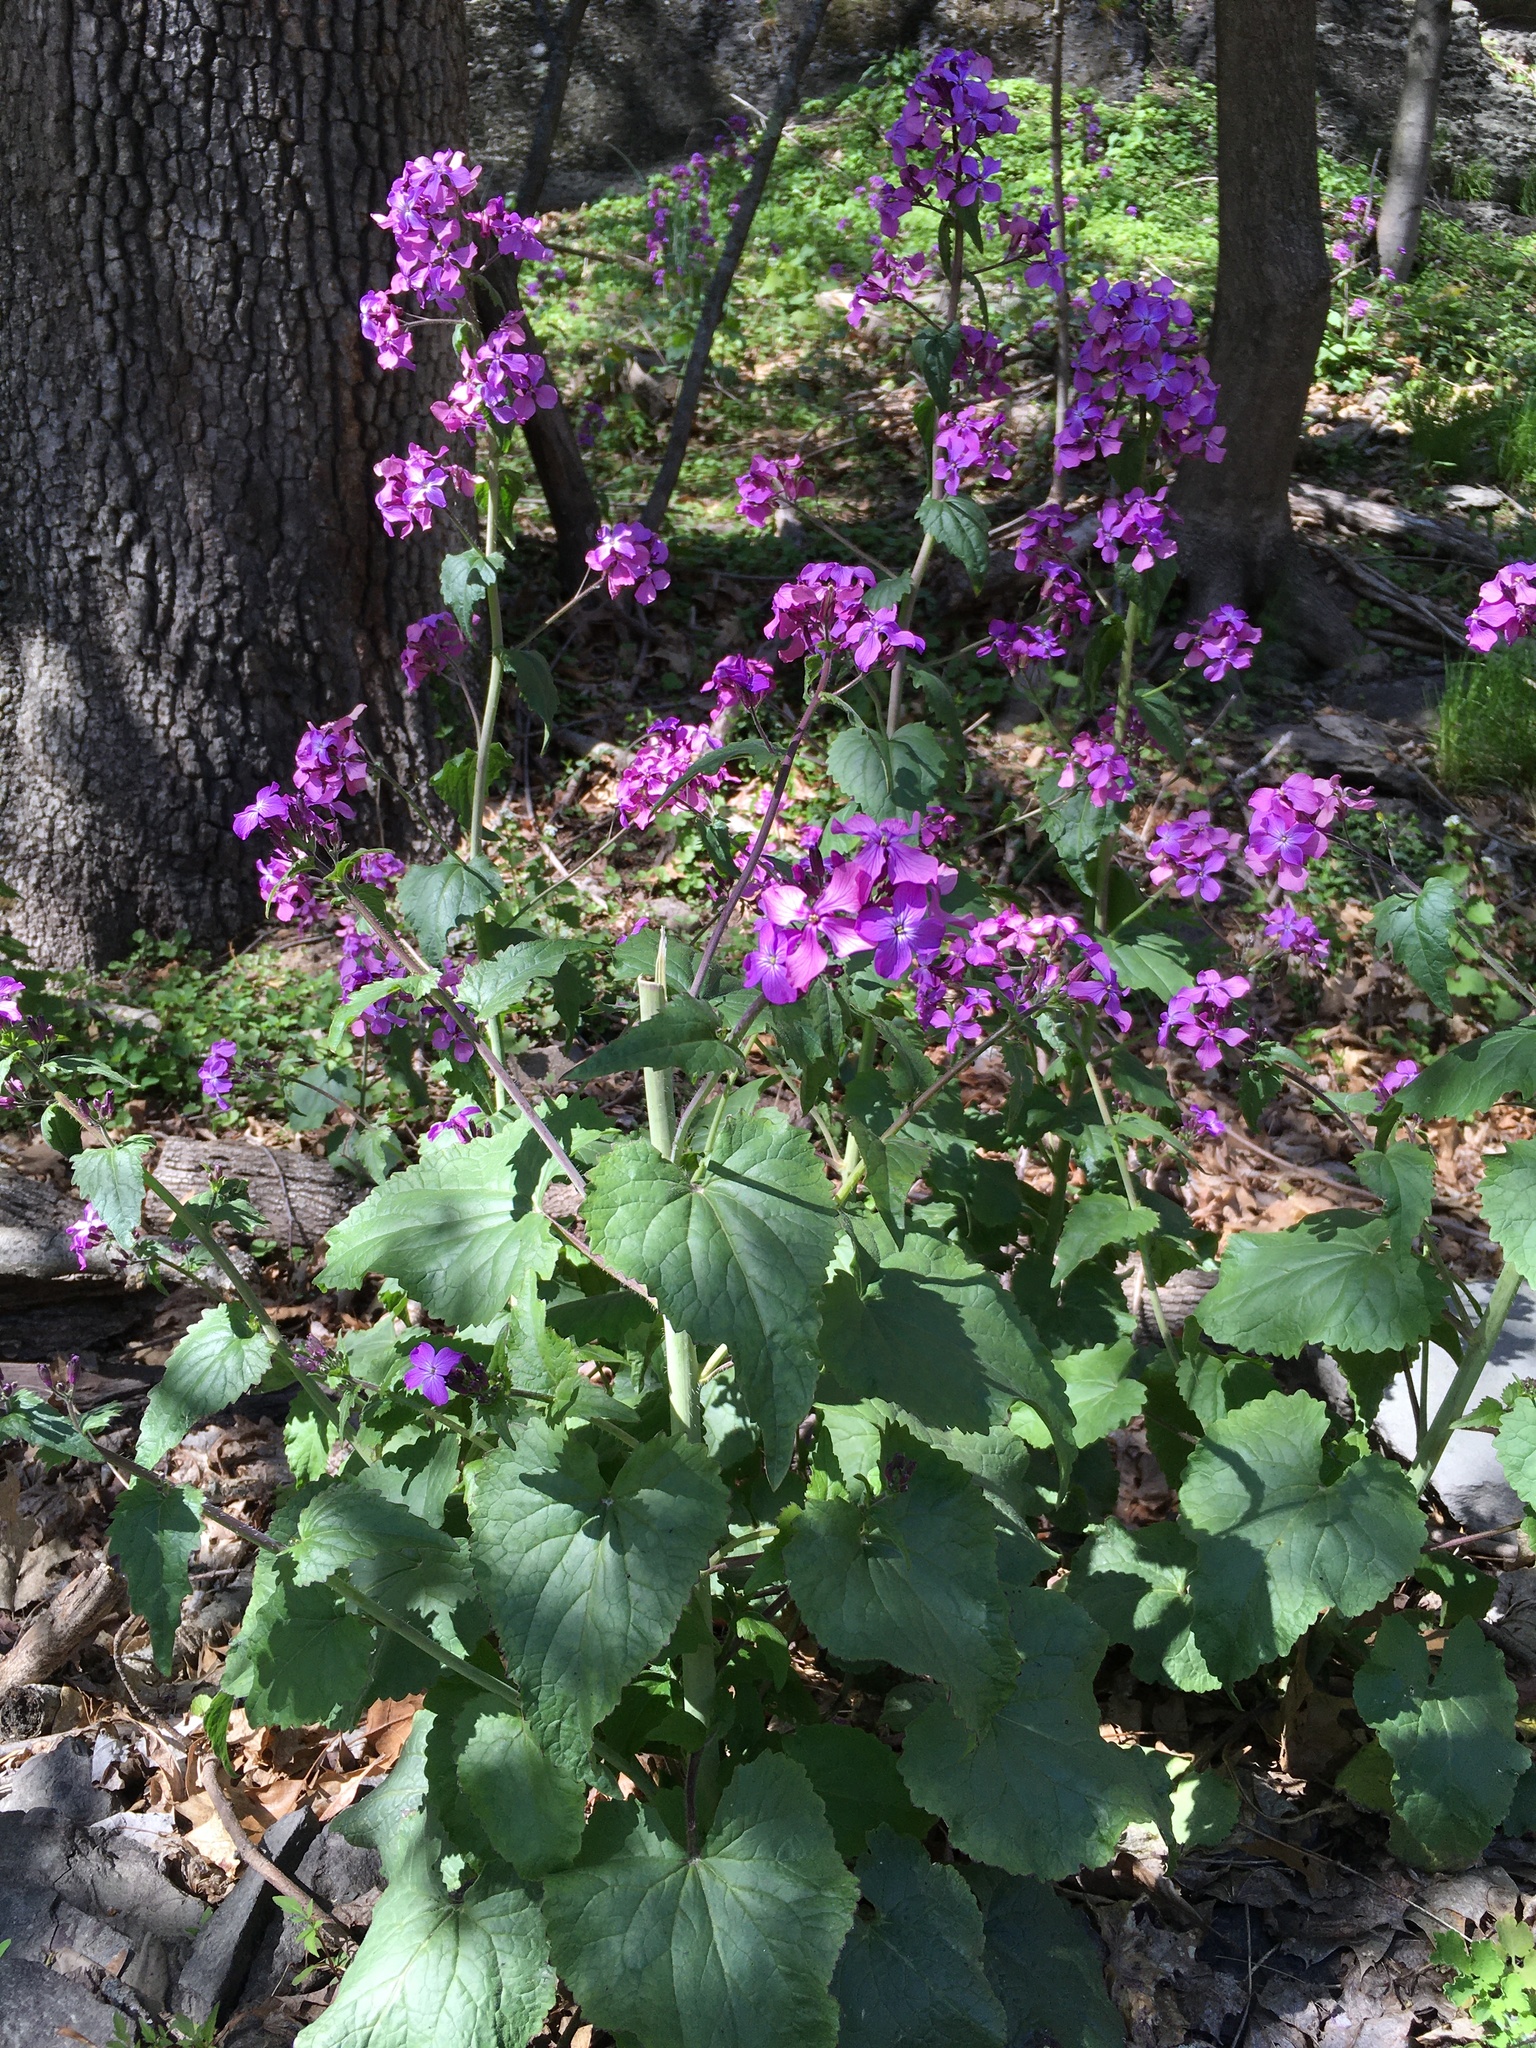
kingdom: Plantae
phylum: Tracheophyta
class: Magnoliopsida
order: Brassicales
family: Brassicaceae
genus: Lunaria
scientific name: Lunaria annua
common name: Honesty
